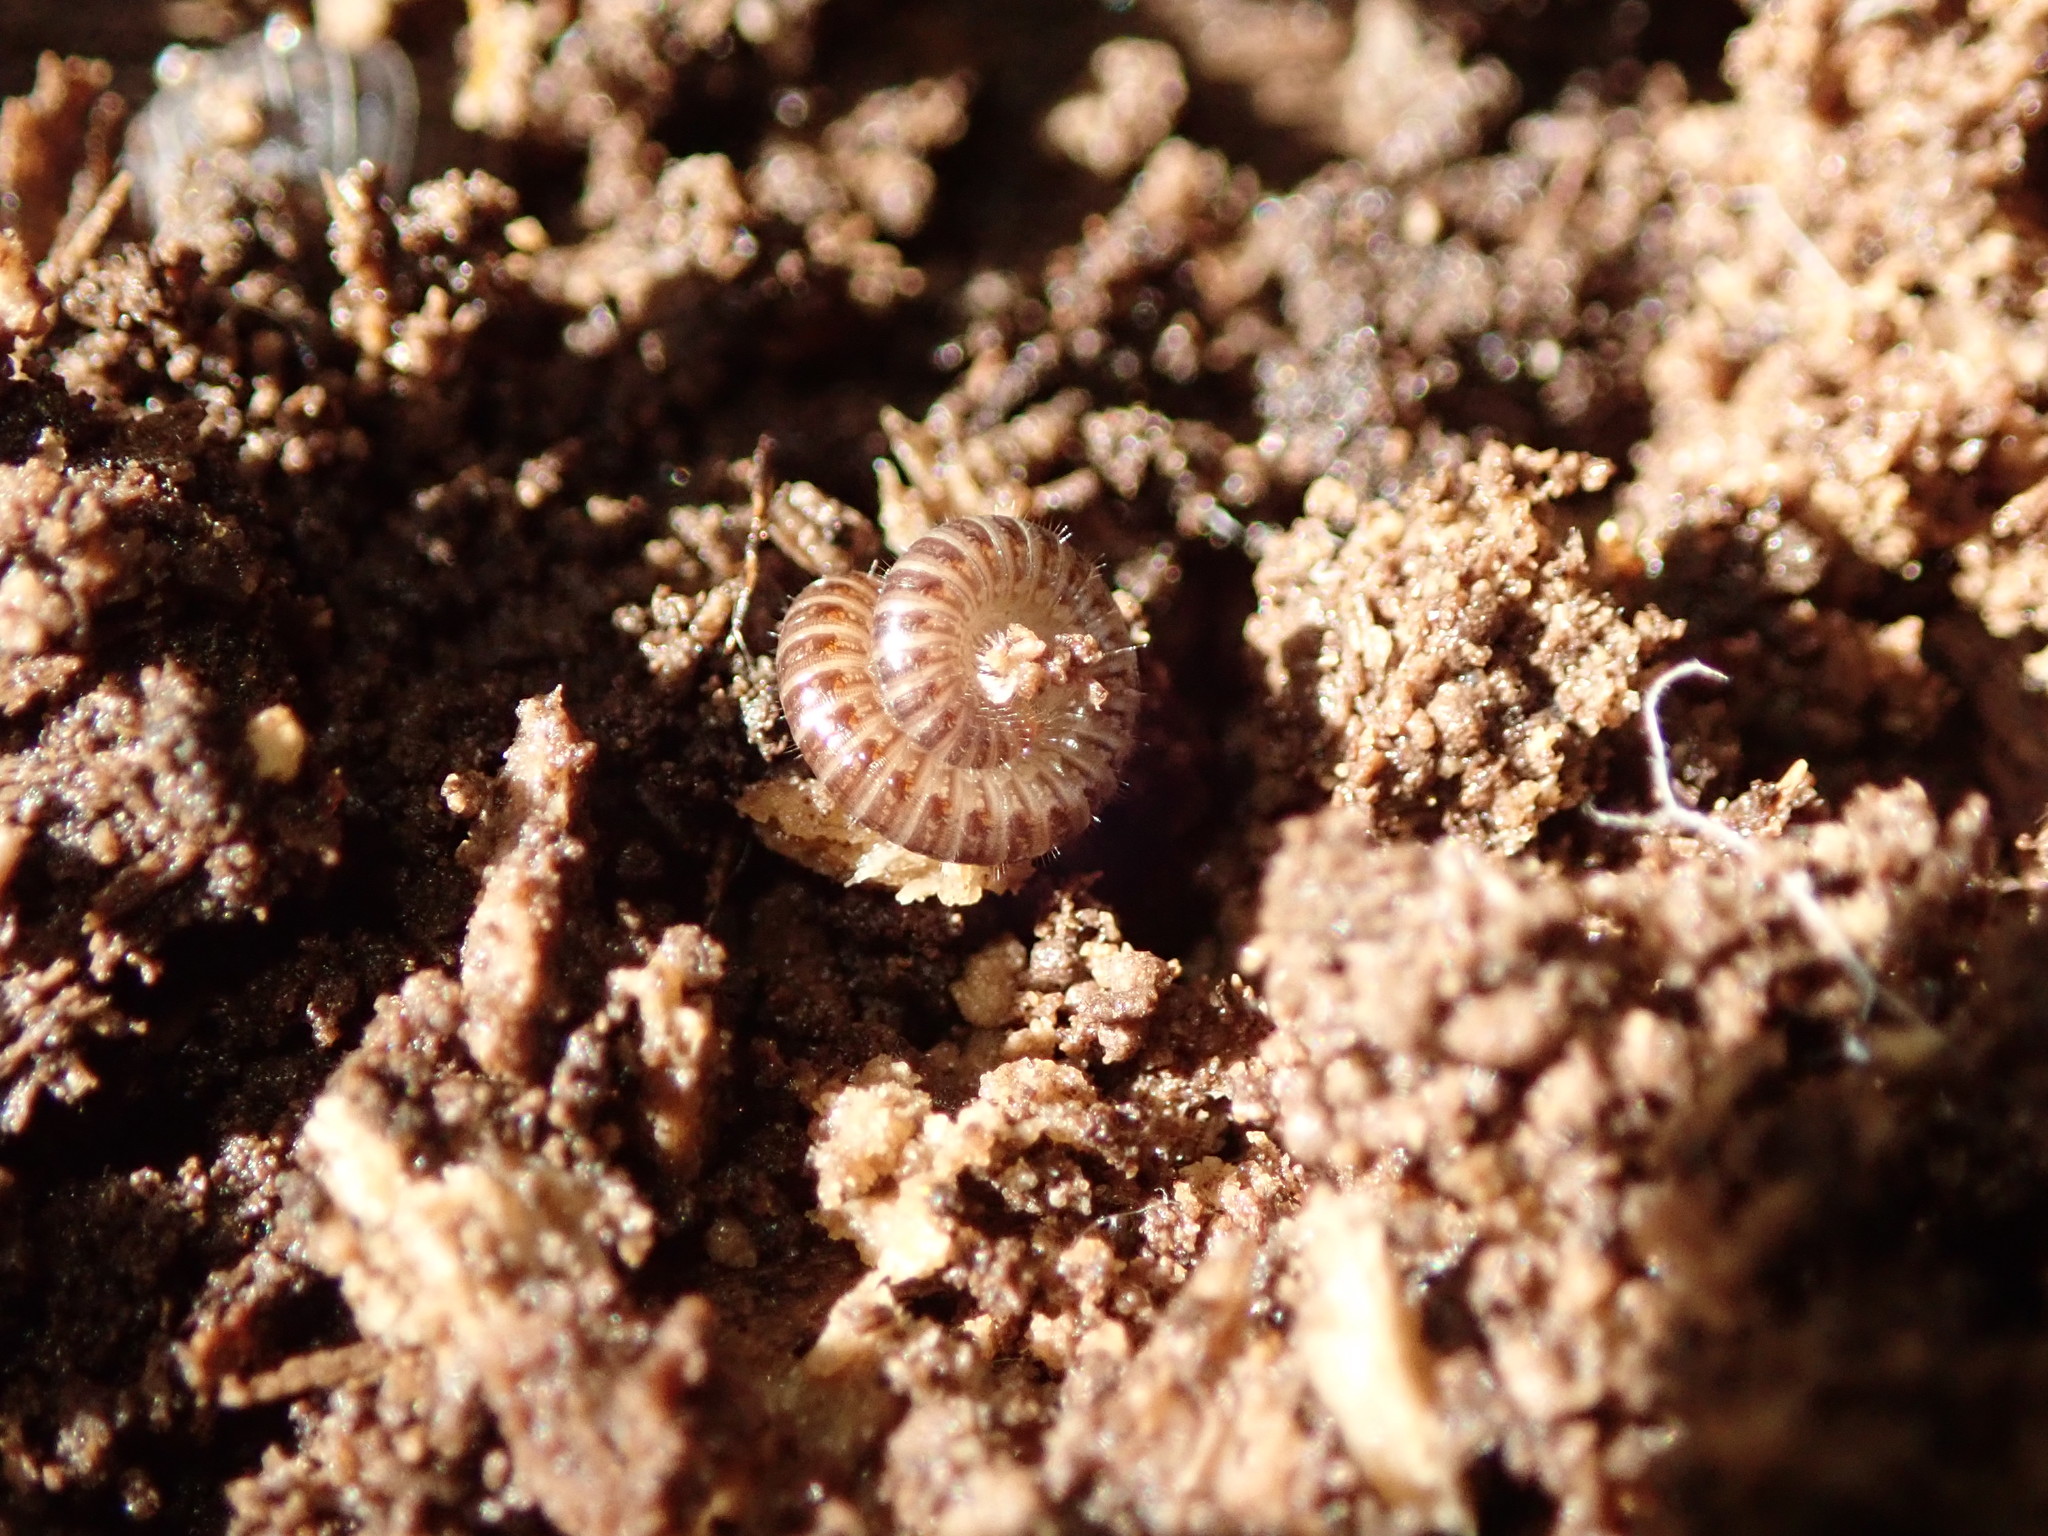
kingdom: Animalia
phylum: Arthropoda
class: Diplopoda
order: Julida
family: Julidae
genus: Ophyiulus
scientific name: Ophyiulus pilosus
